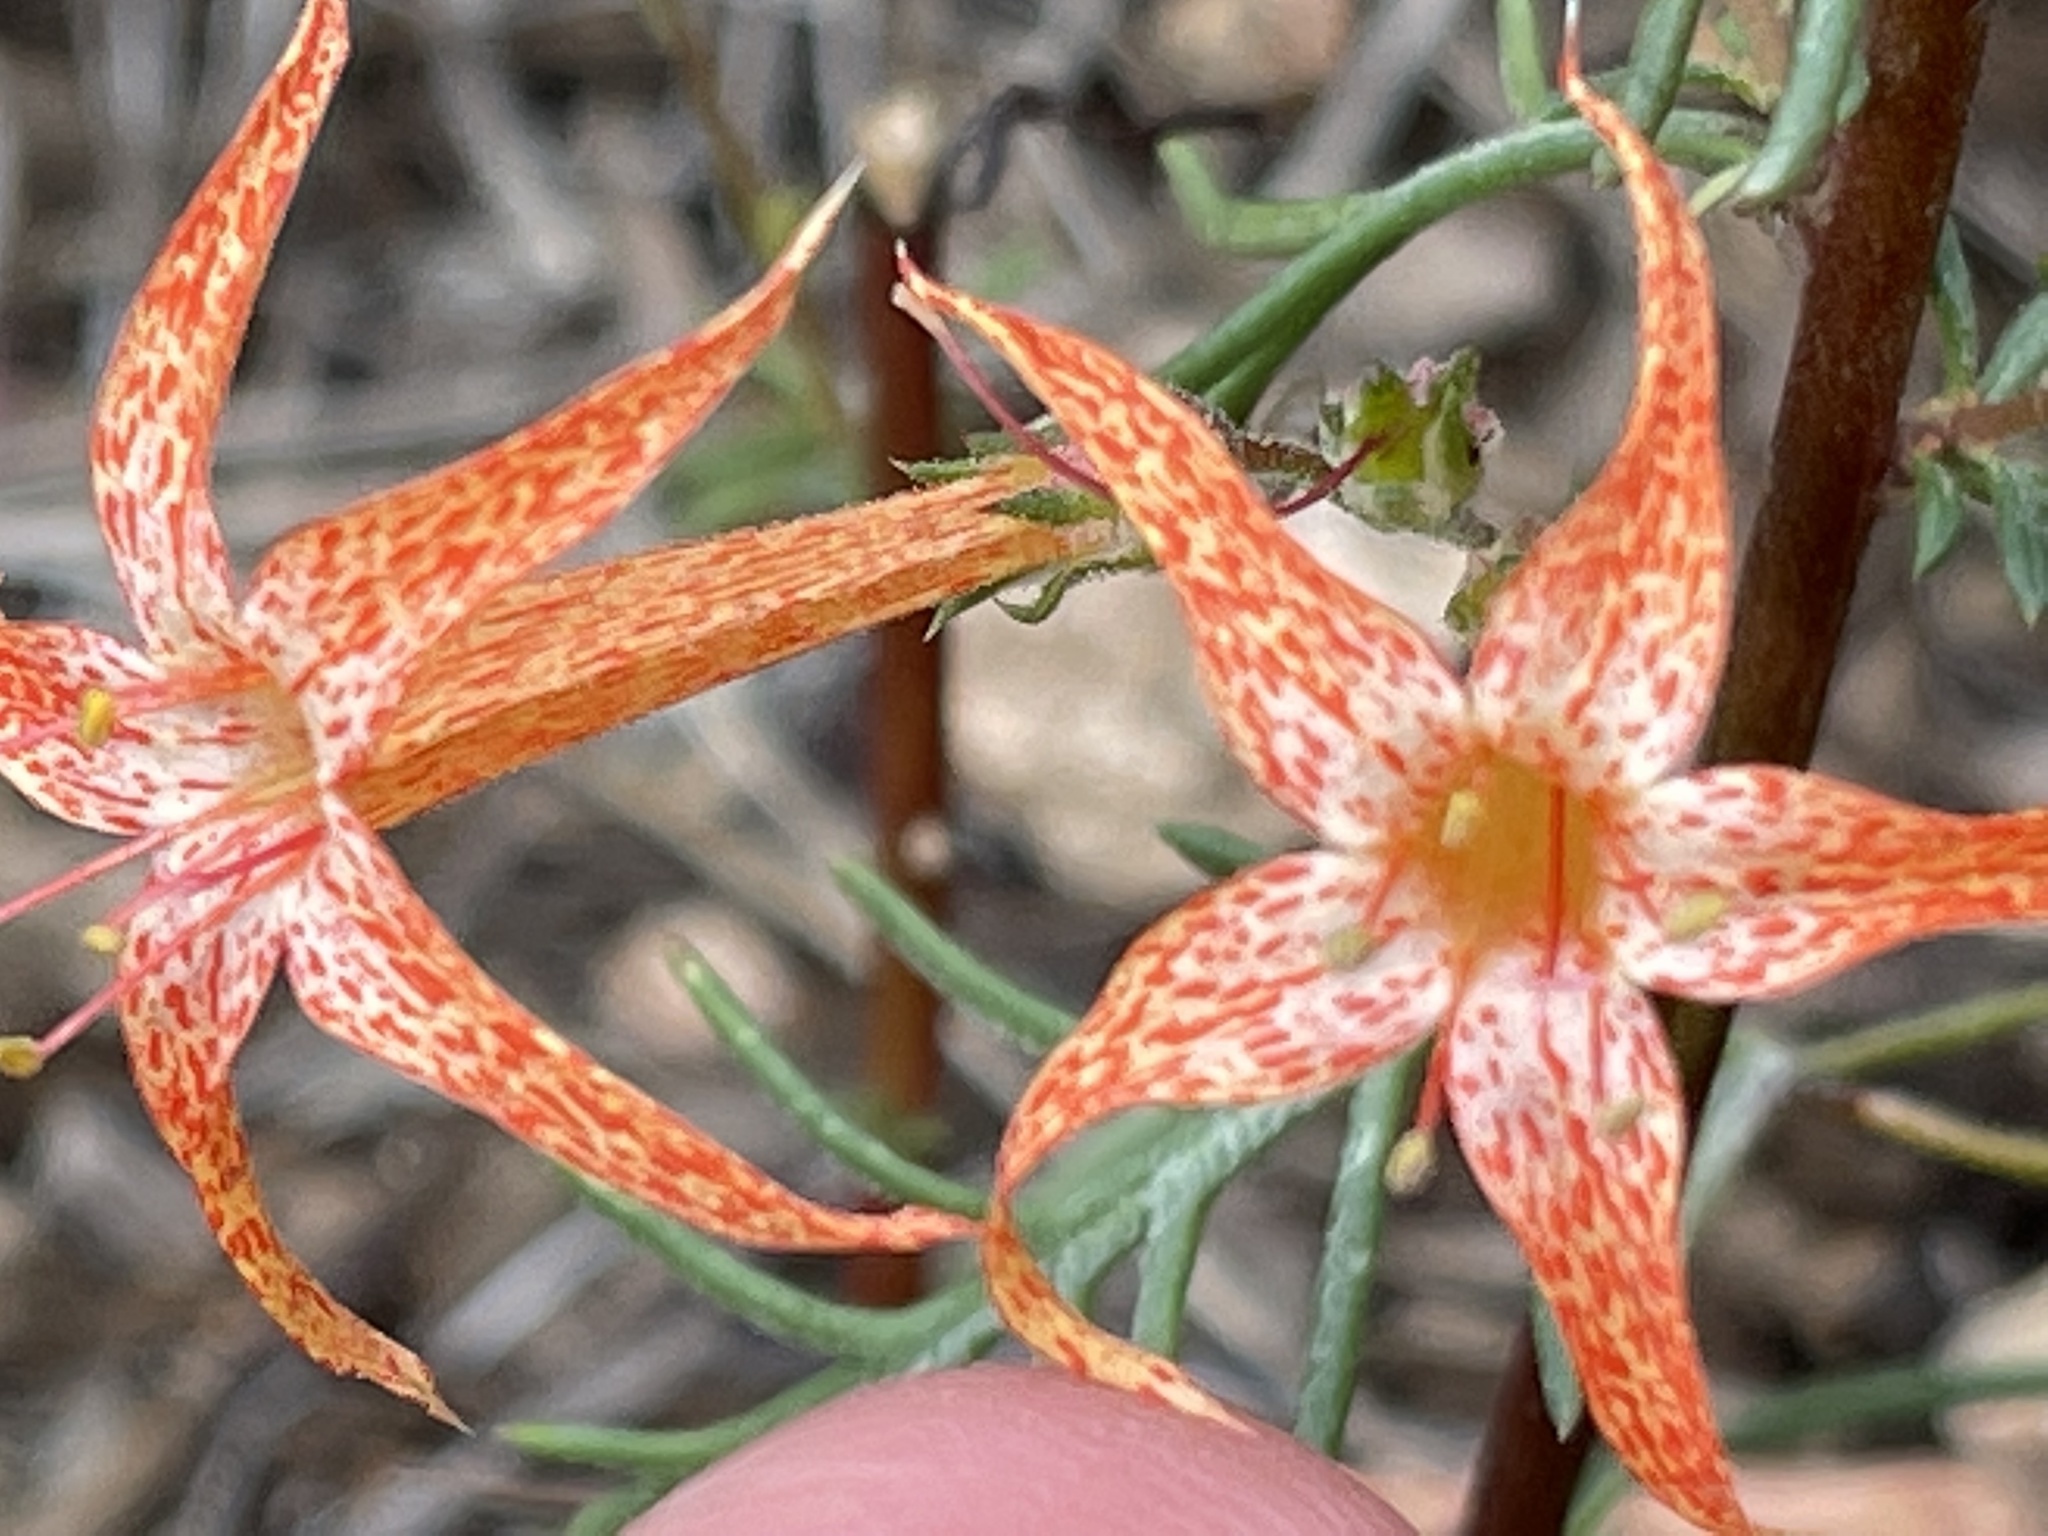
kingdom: Plantae
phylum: Tracheophyta
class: Magnoliopsida
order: Ericales
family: Polemoniaceae
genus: Ipomopsis
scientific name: Ipomopsis aggregata
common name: Scarlet gilia
